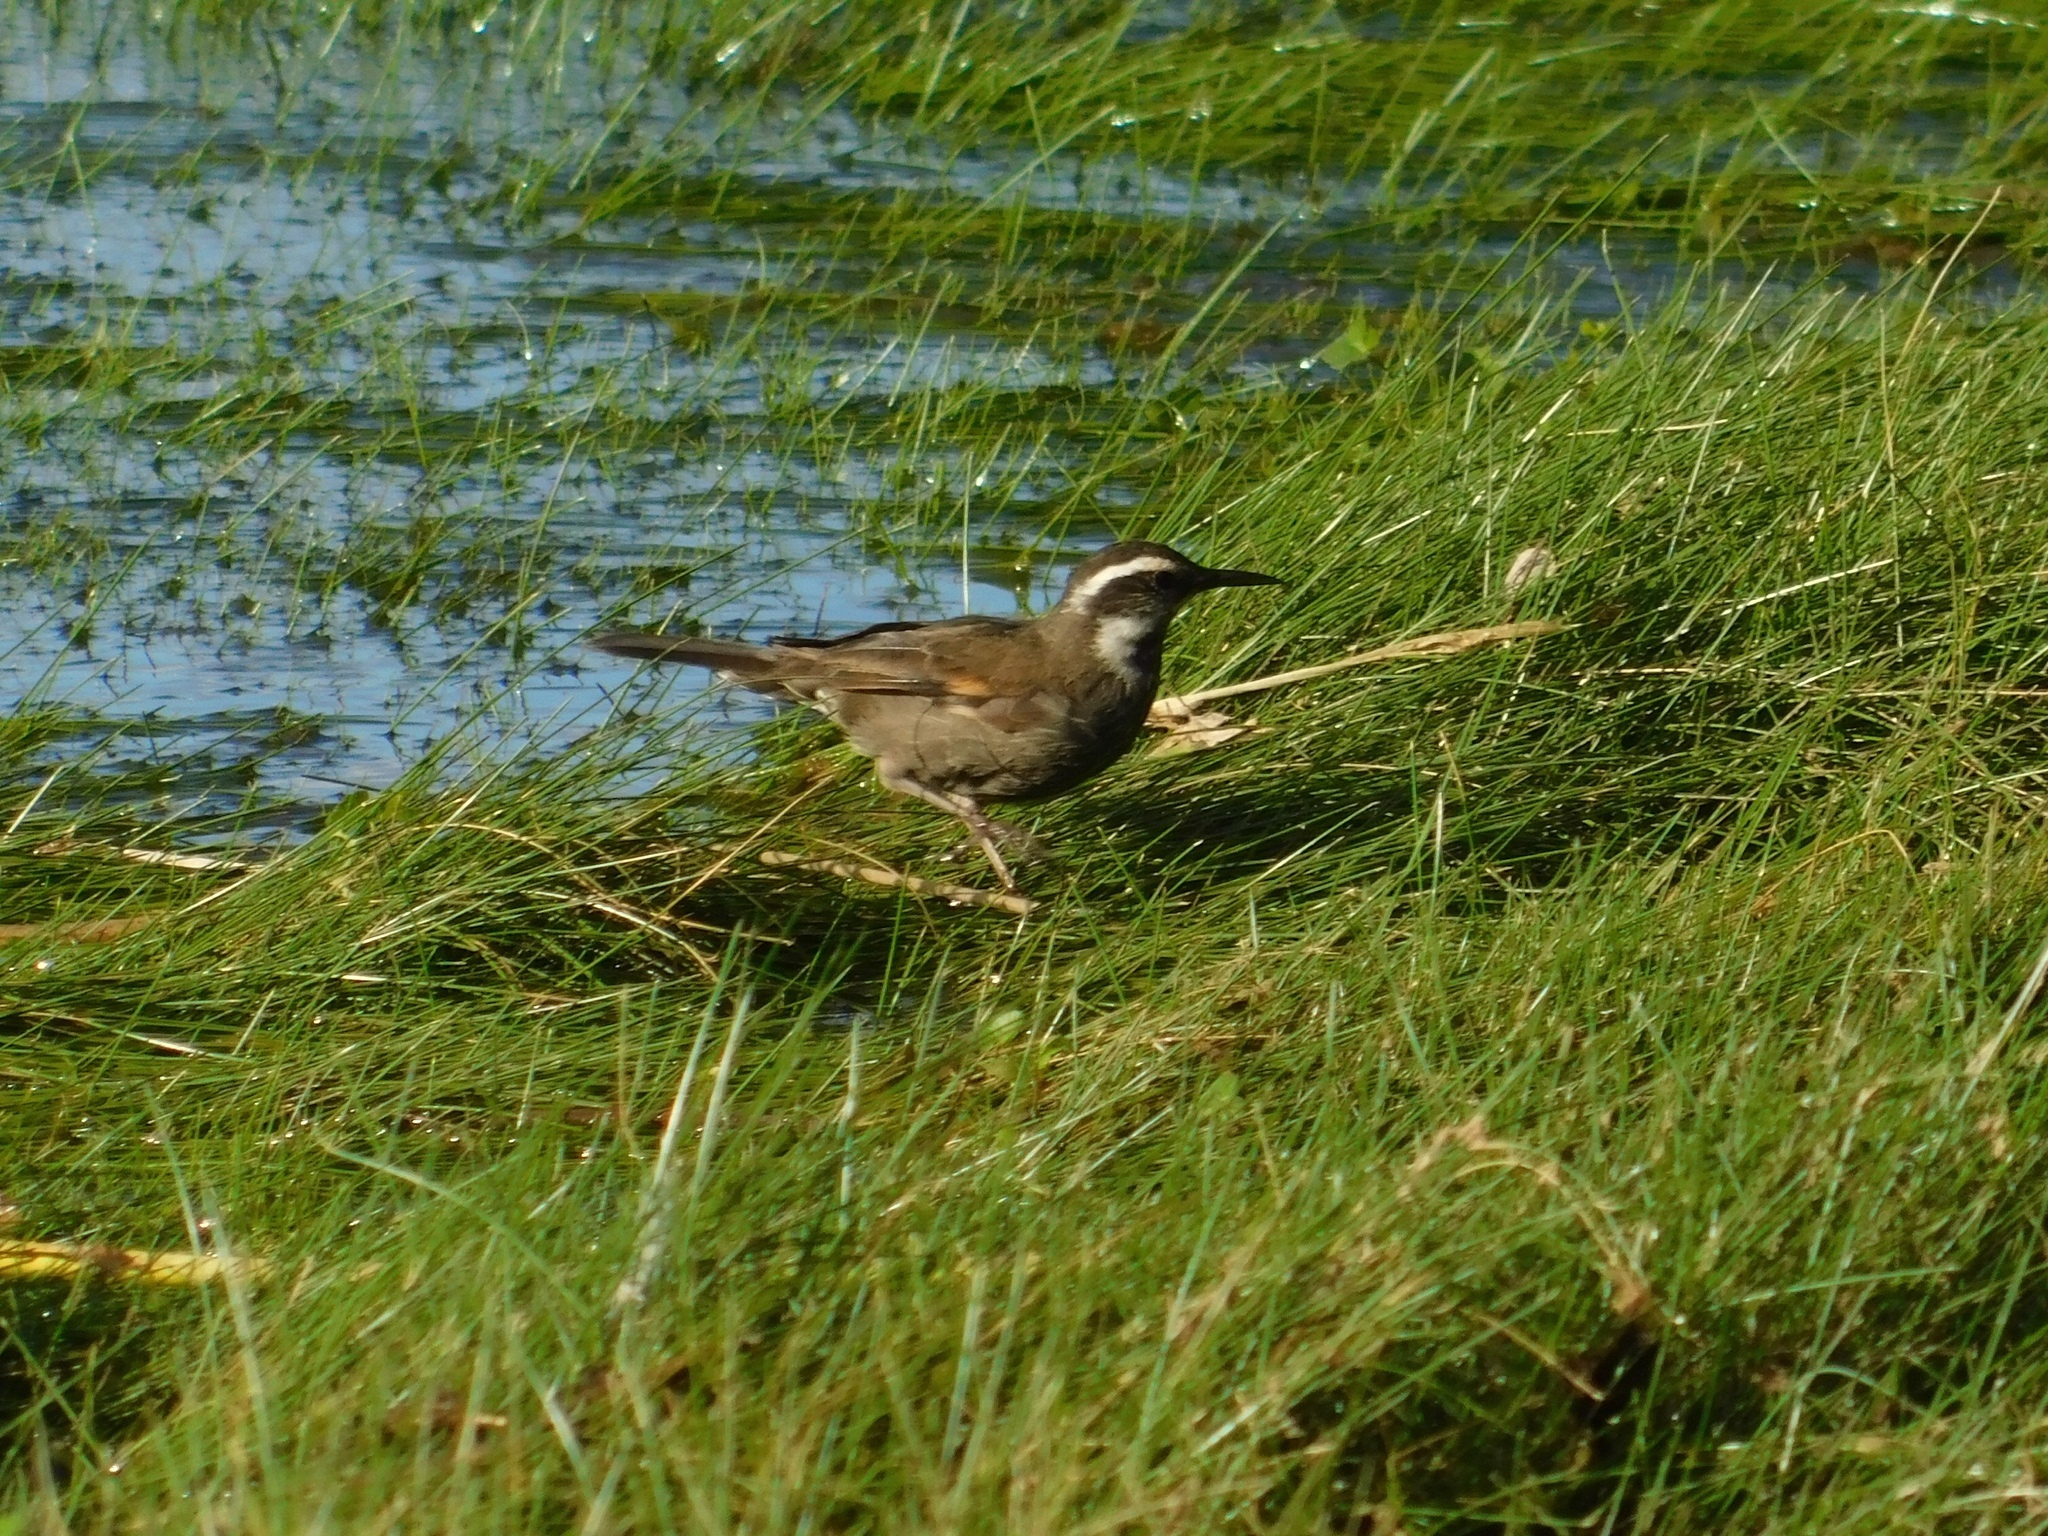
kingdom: Animalia
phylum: Chordata
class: Aves
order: Passeriformes
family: Furnariidae
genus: Cinclodes
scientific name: Cinclodes patagonicus
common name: Dark-bellied cinclodes
